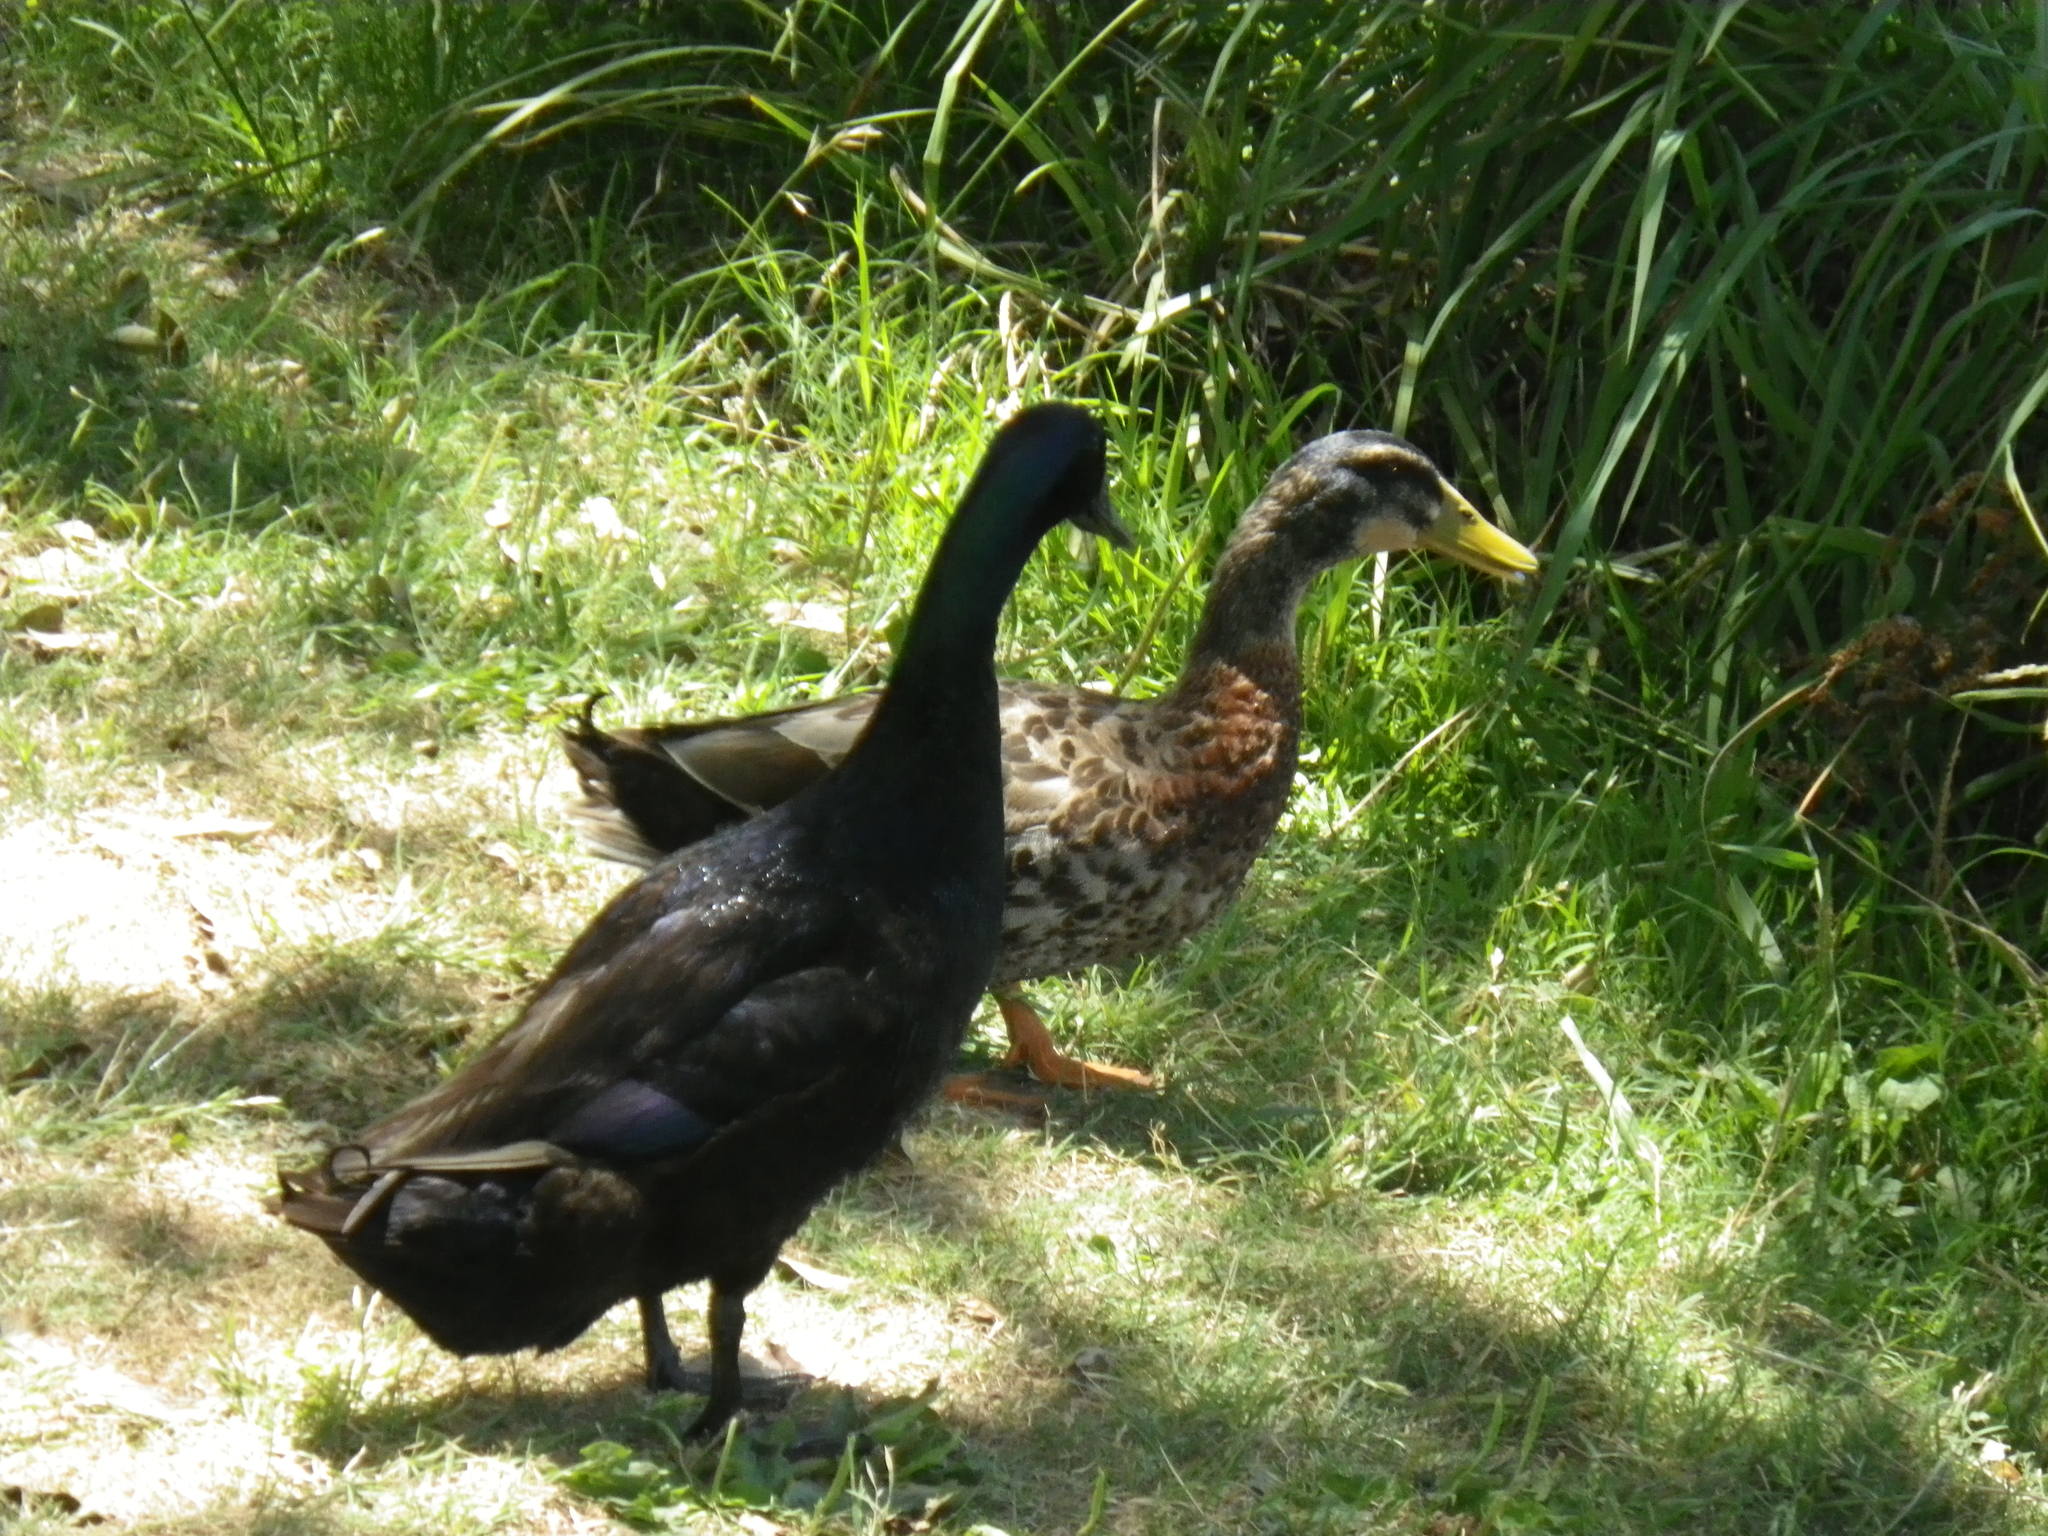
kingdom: Animalia
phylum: Chordata
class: Aves
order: Anseriformes
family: Anatidae
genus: Anas
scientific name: Anas platyrhynchos
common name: Mallard
